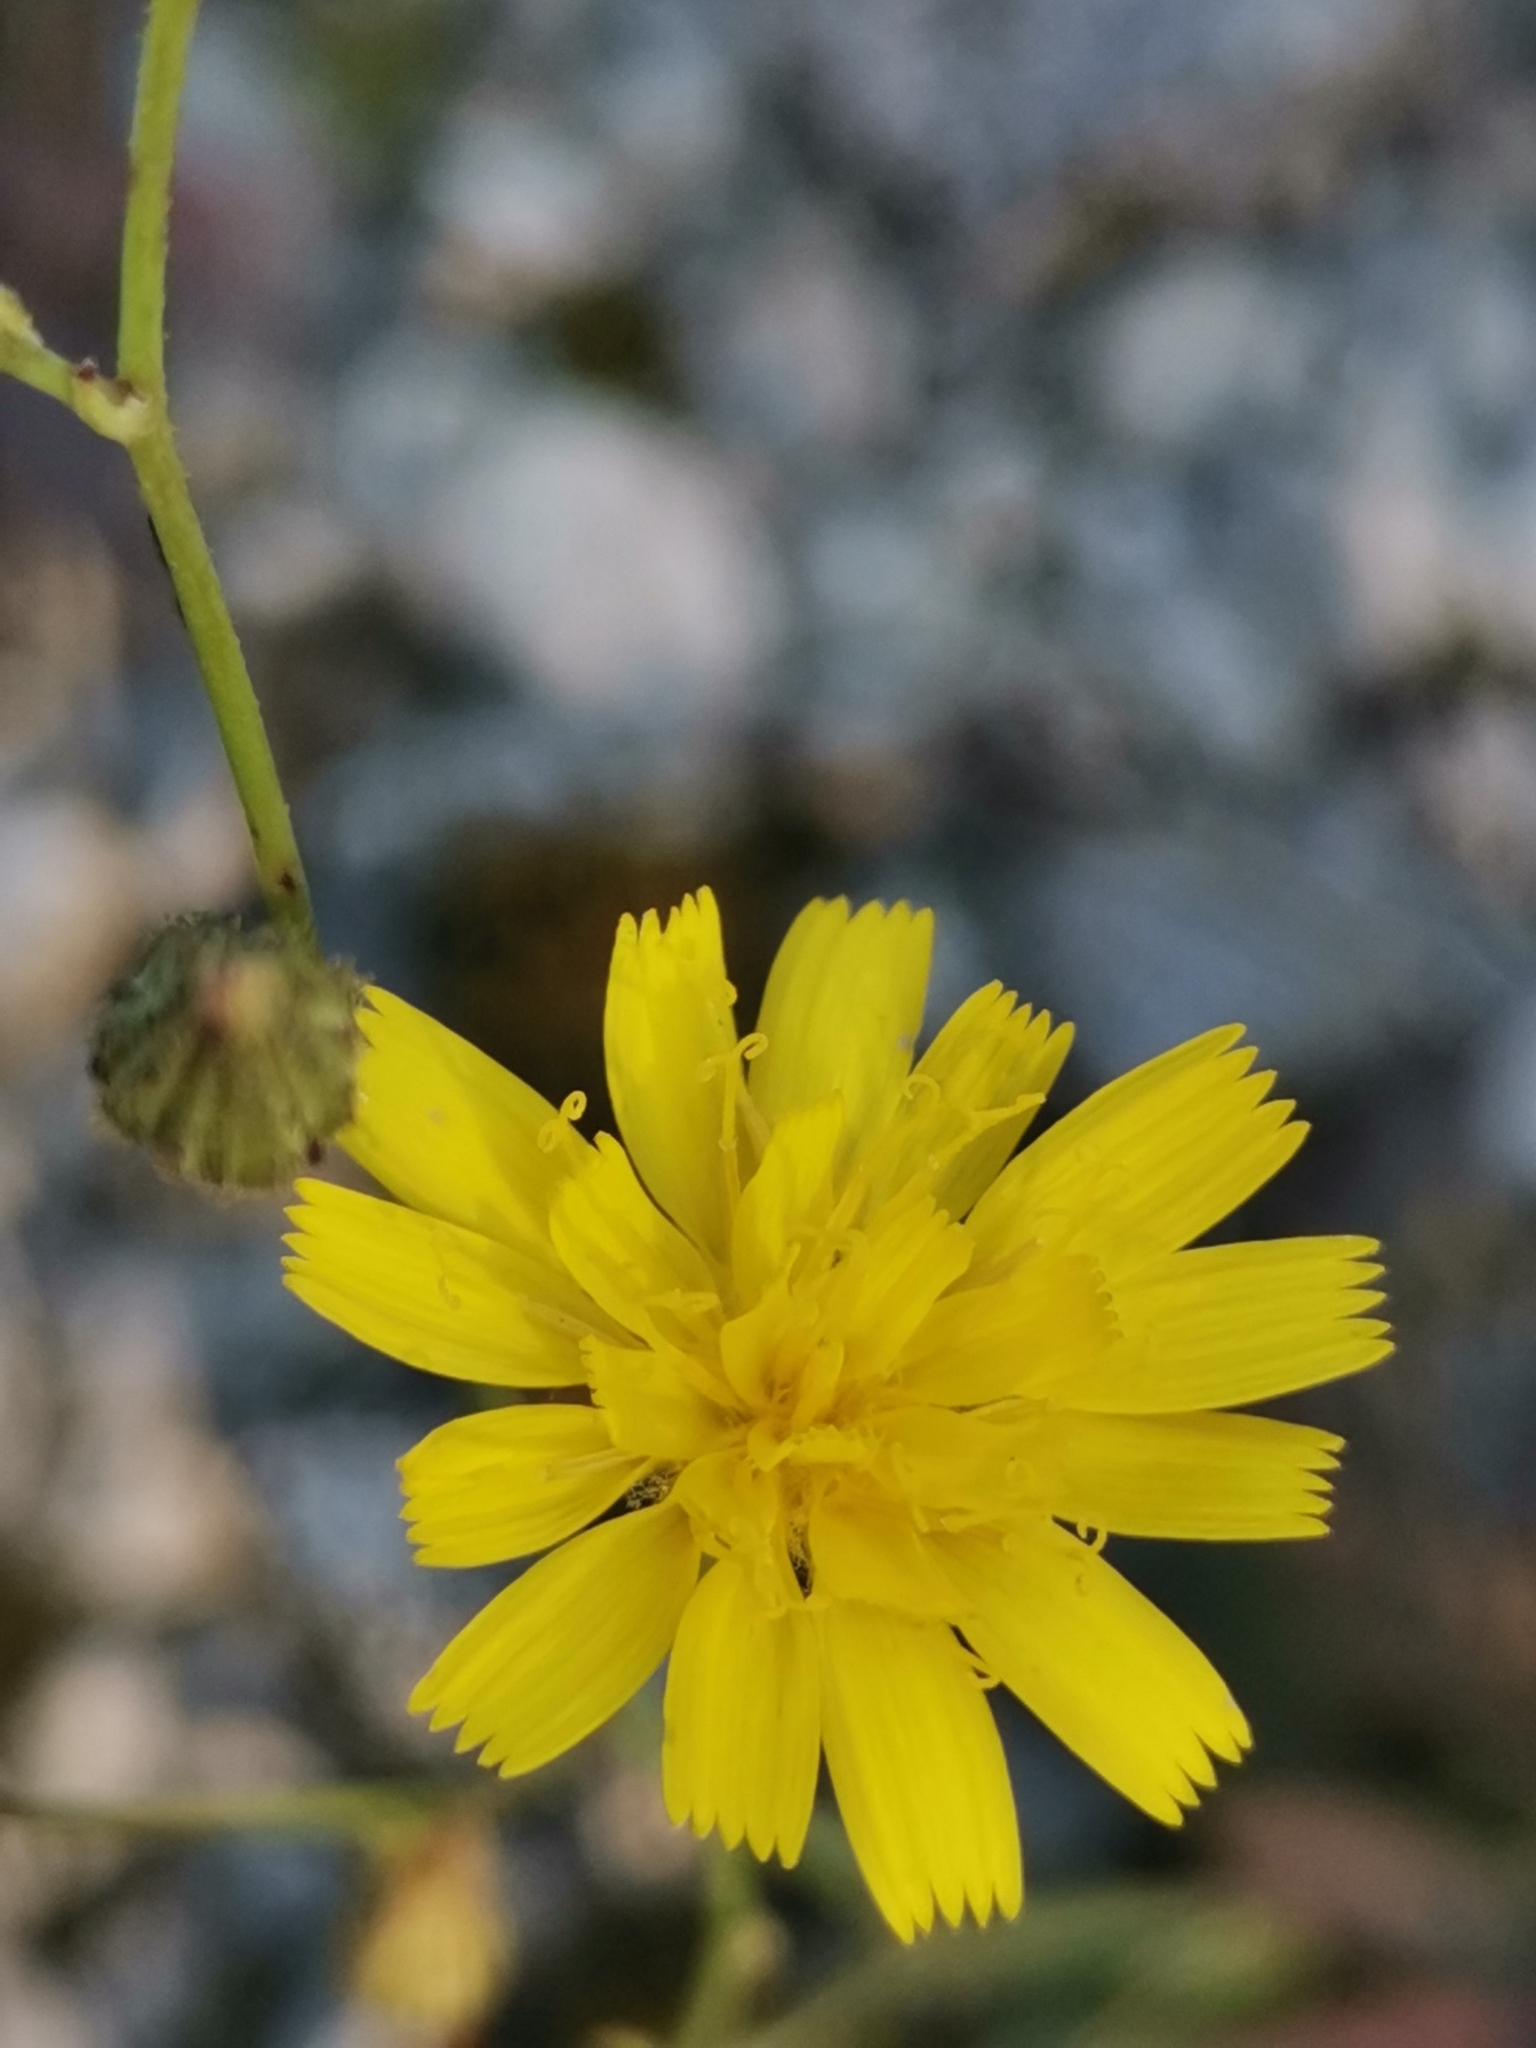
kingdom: Plantae
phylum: Tracheophyta
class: Magnoliopsida
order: Asterales
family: Asteraceae
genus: Pilosella
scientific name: Pilosella piloselloides
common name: Glaucous king-devil
